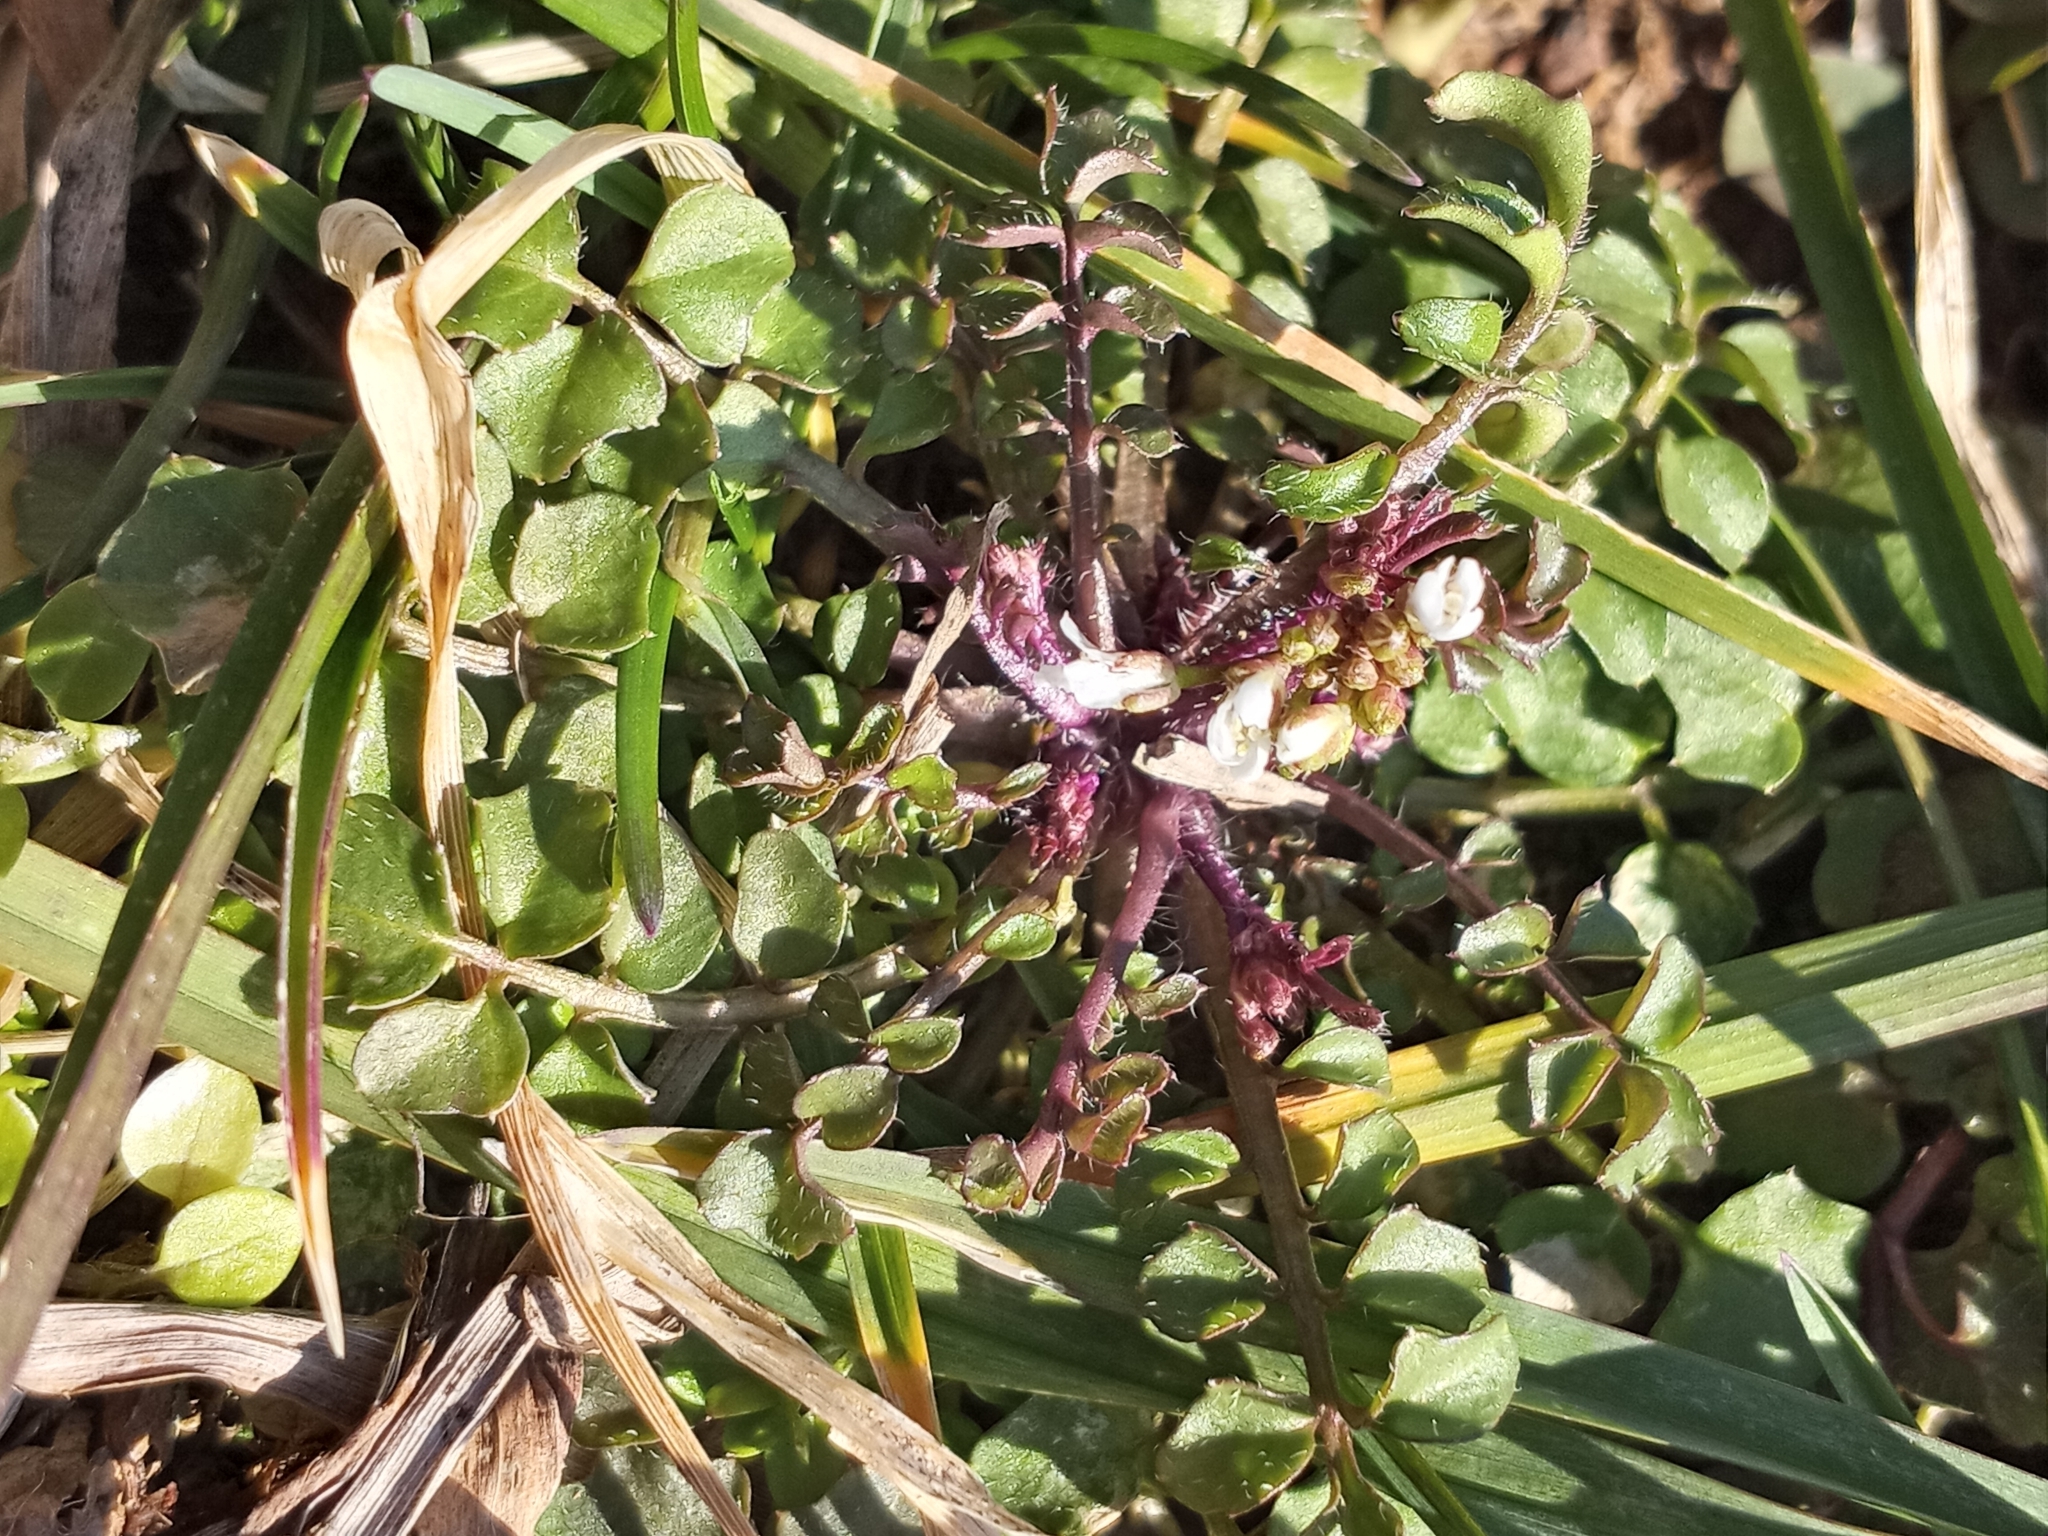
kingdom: Plantae
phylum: Tracheophyta
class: Magnoliopsida
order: Brassicales
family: Brassicaceae
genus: Cardamine
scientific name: Cardamine hirsuta
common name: Hairy bittercress
